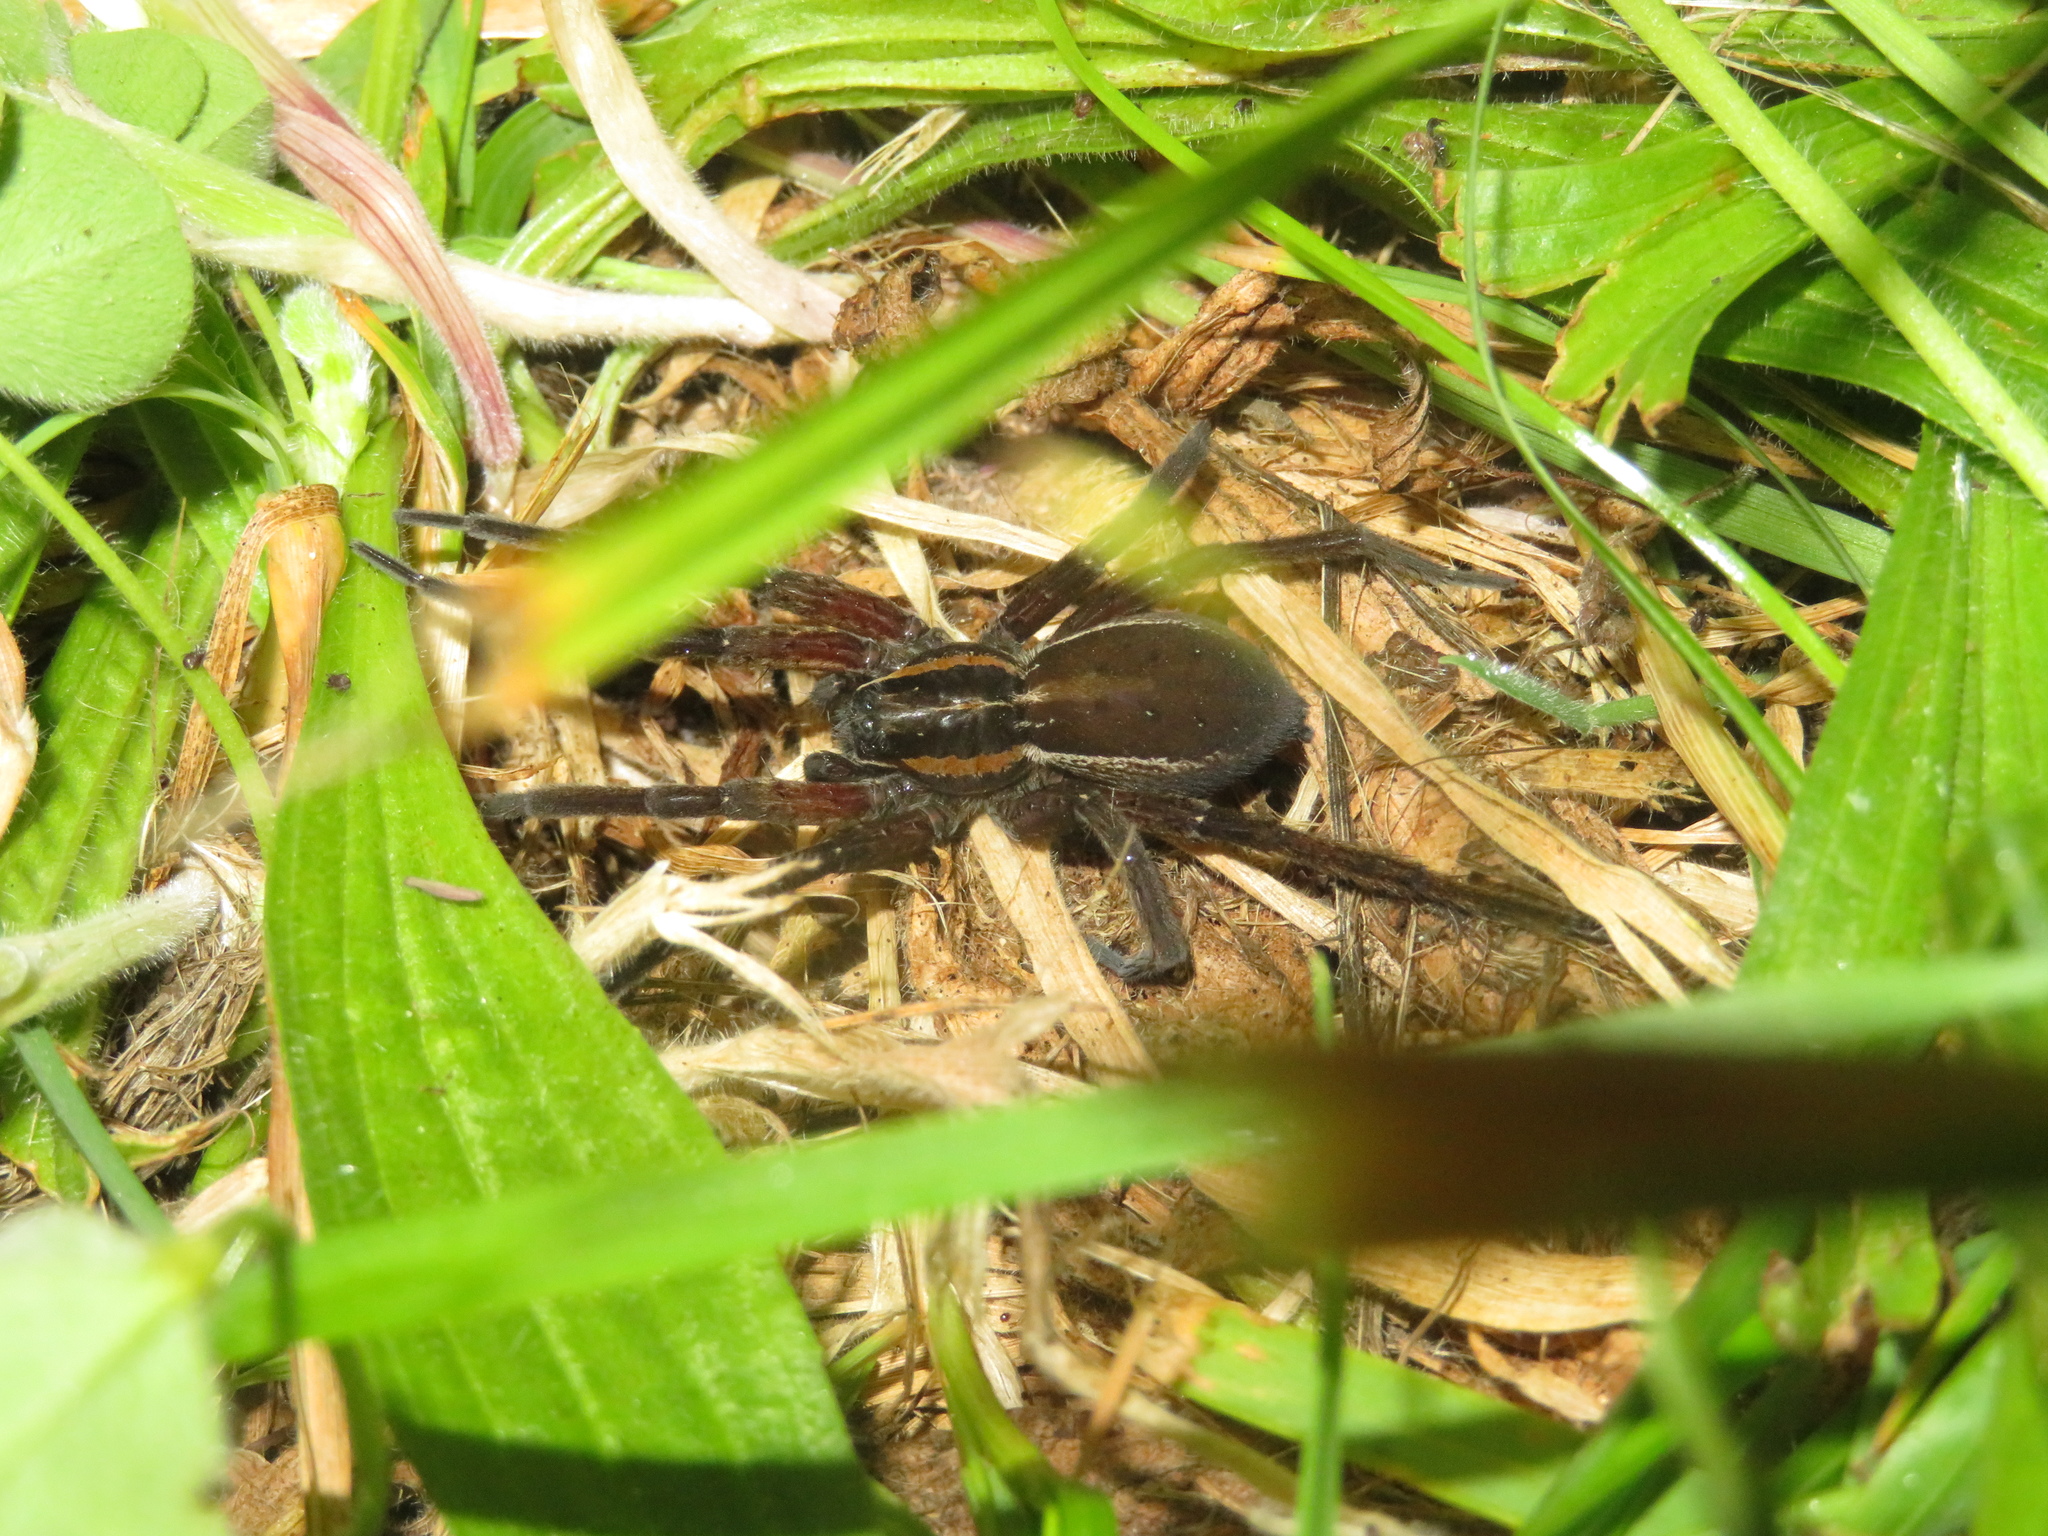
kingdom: Animalia
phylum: Arthropoda
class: Arachnida
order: Araneae
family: Pisauridae
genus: Dolomedes
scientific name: Dolomedes minor
